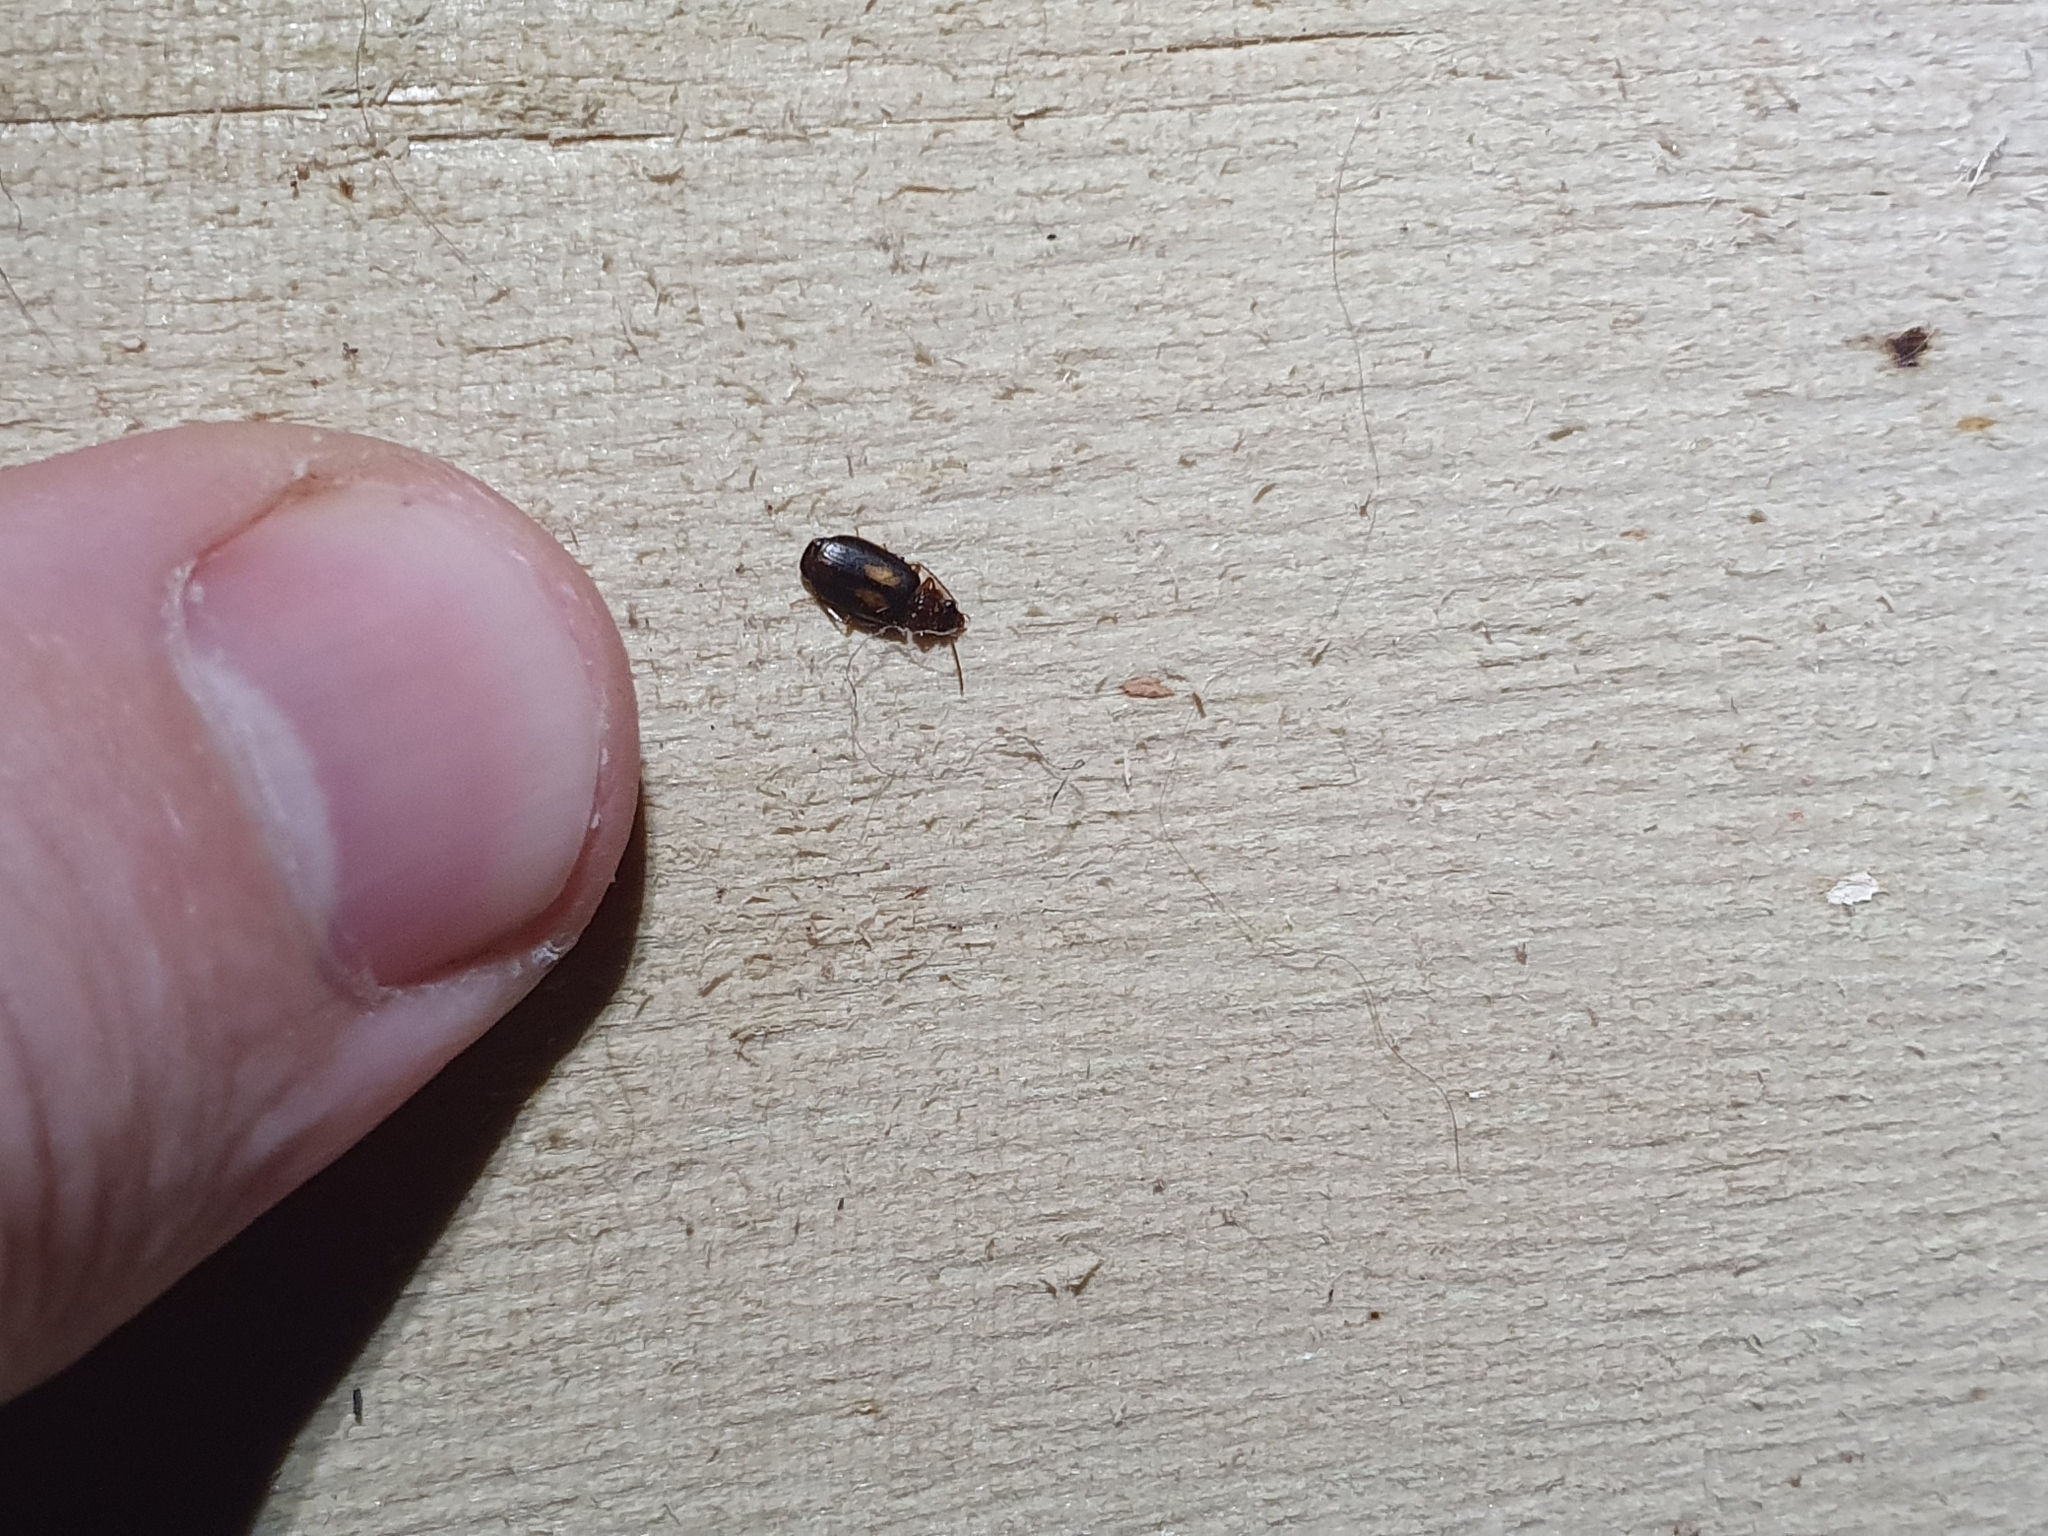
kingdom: Animalia
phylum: Arthropoda
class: Insecta
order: Coleoptera
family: Carabidae
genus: Agonocheila
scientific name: Agonocheila antipodum
